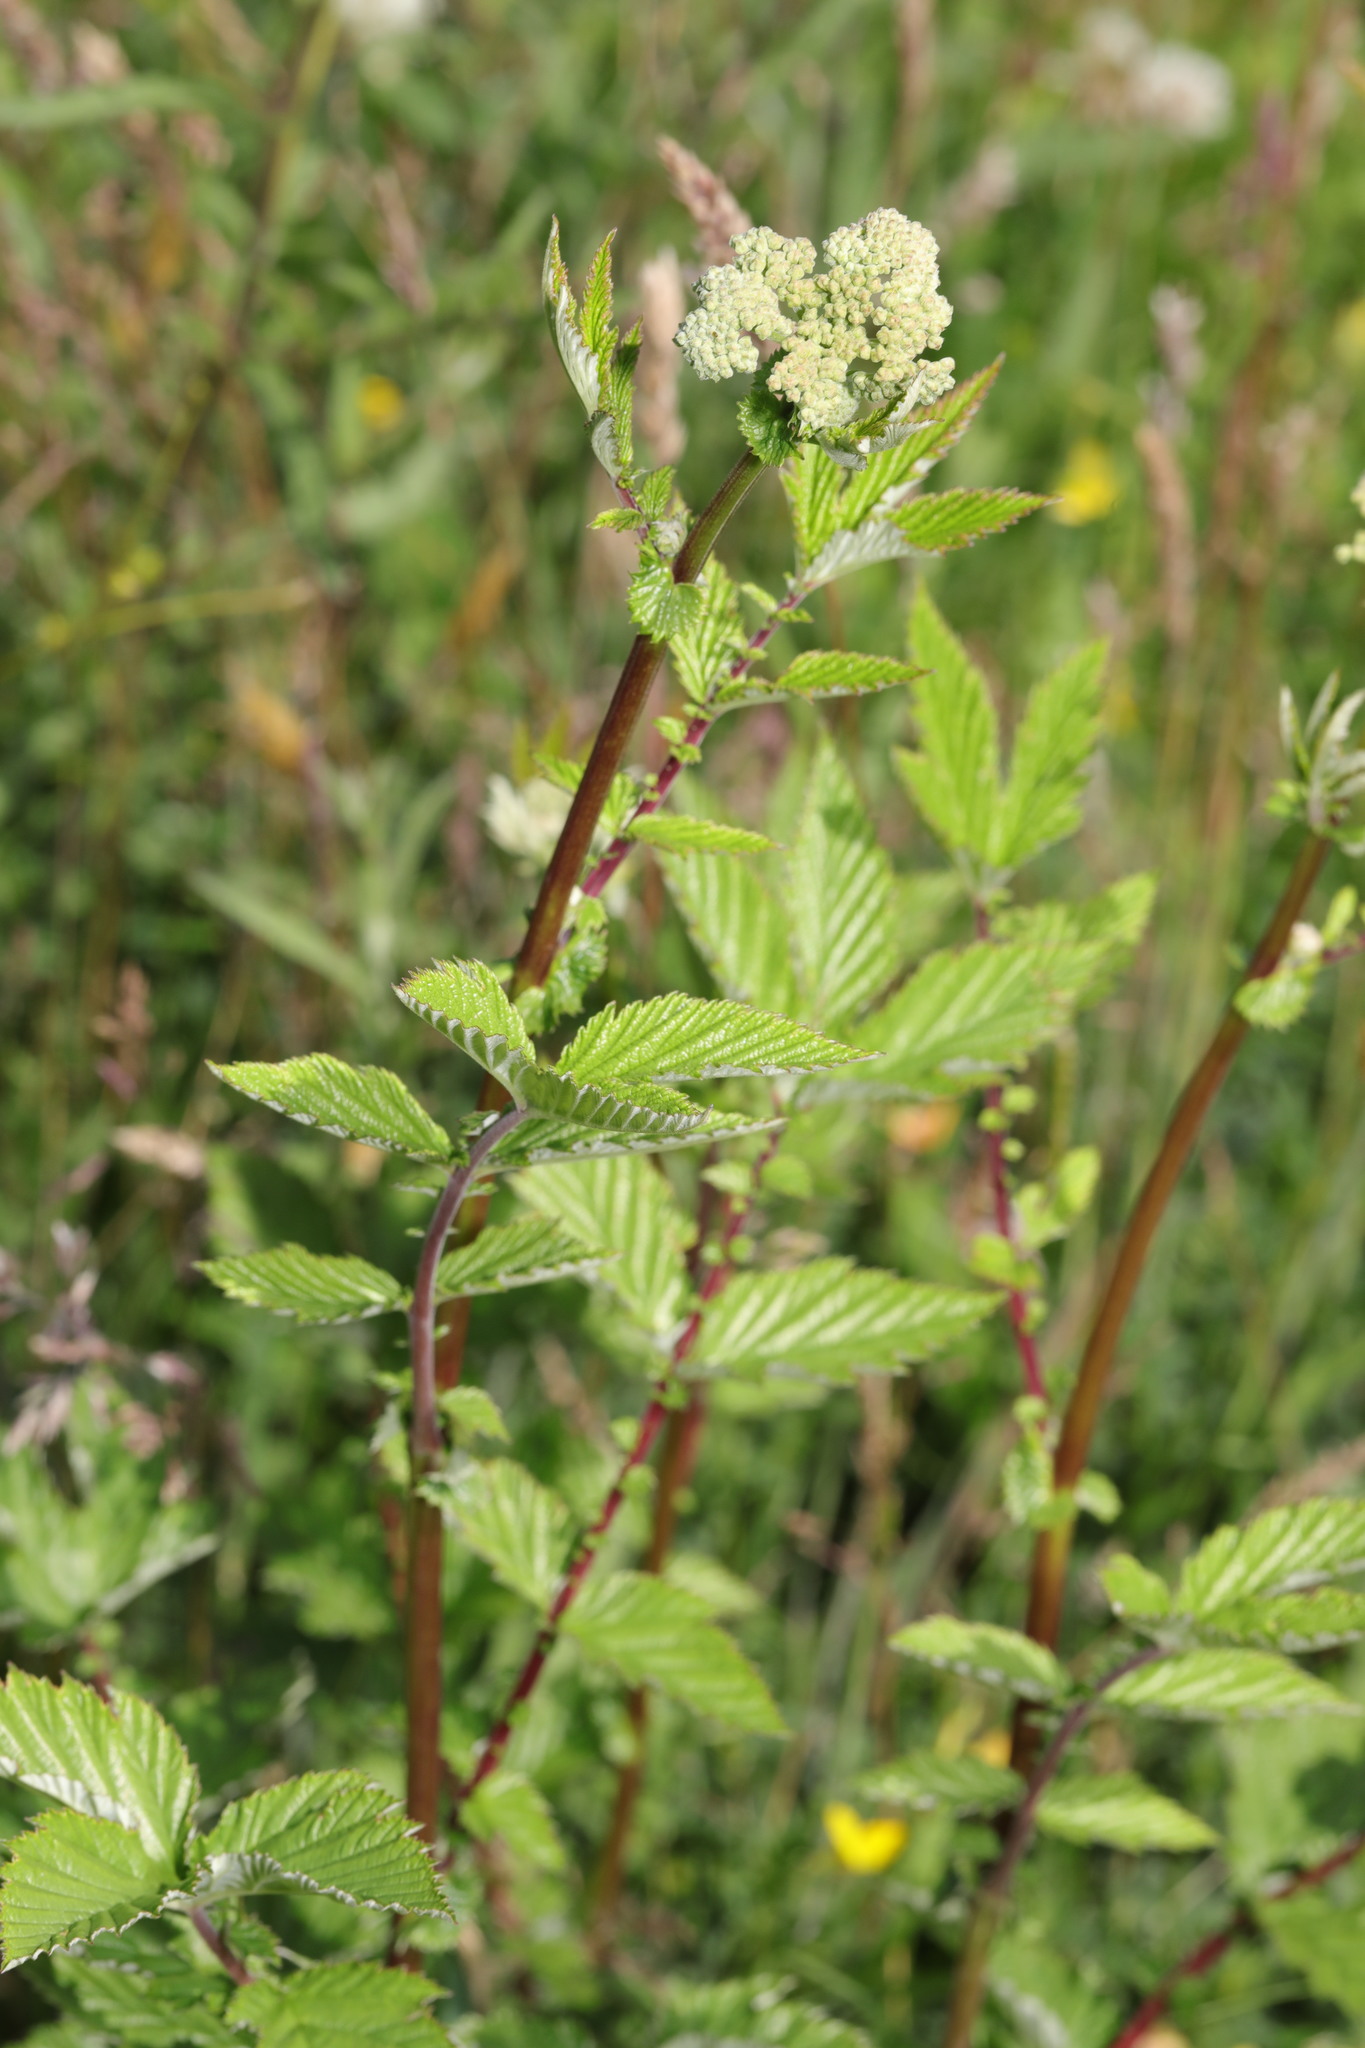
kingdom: Plantae
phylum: Tracheophyta
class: Magnoliopsida
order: Rosales
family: Rosaceae
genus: Filipendula
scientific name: Filipendula ulmaria
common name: Meadowsweet
